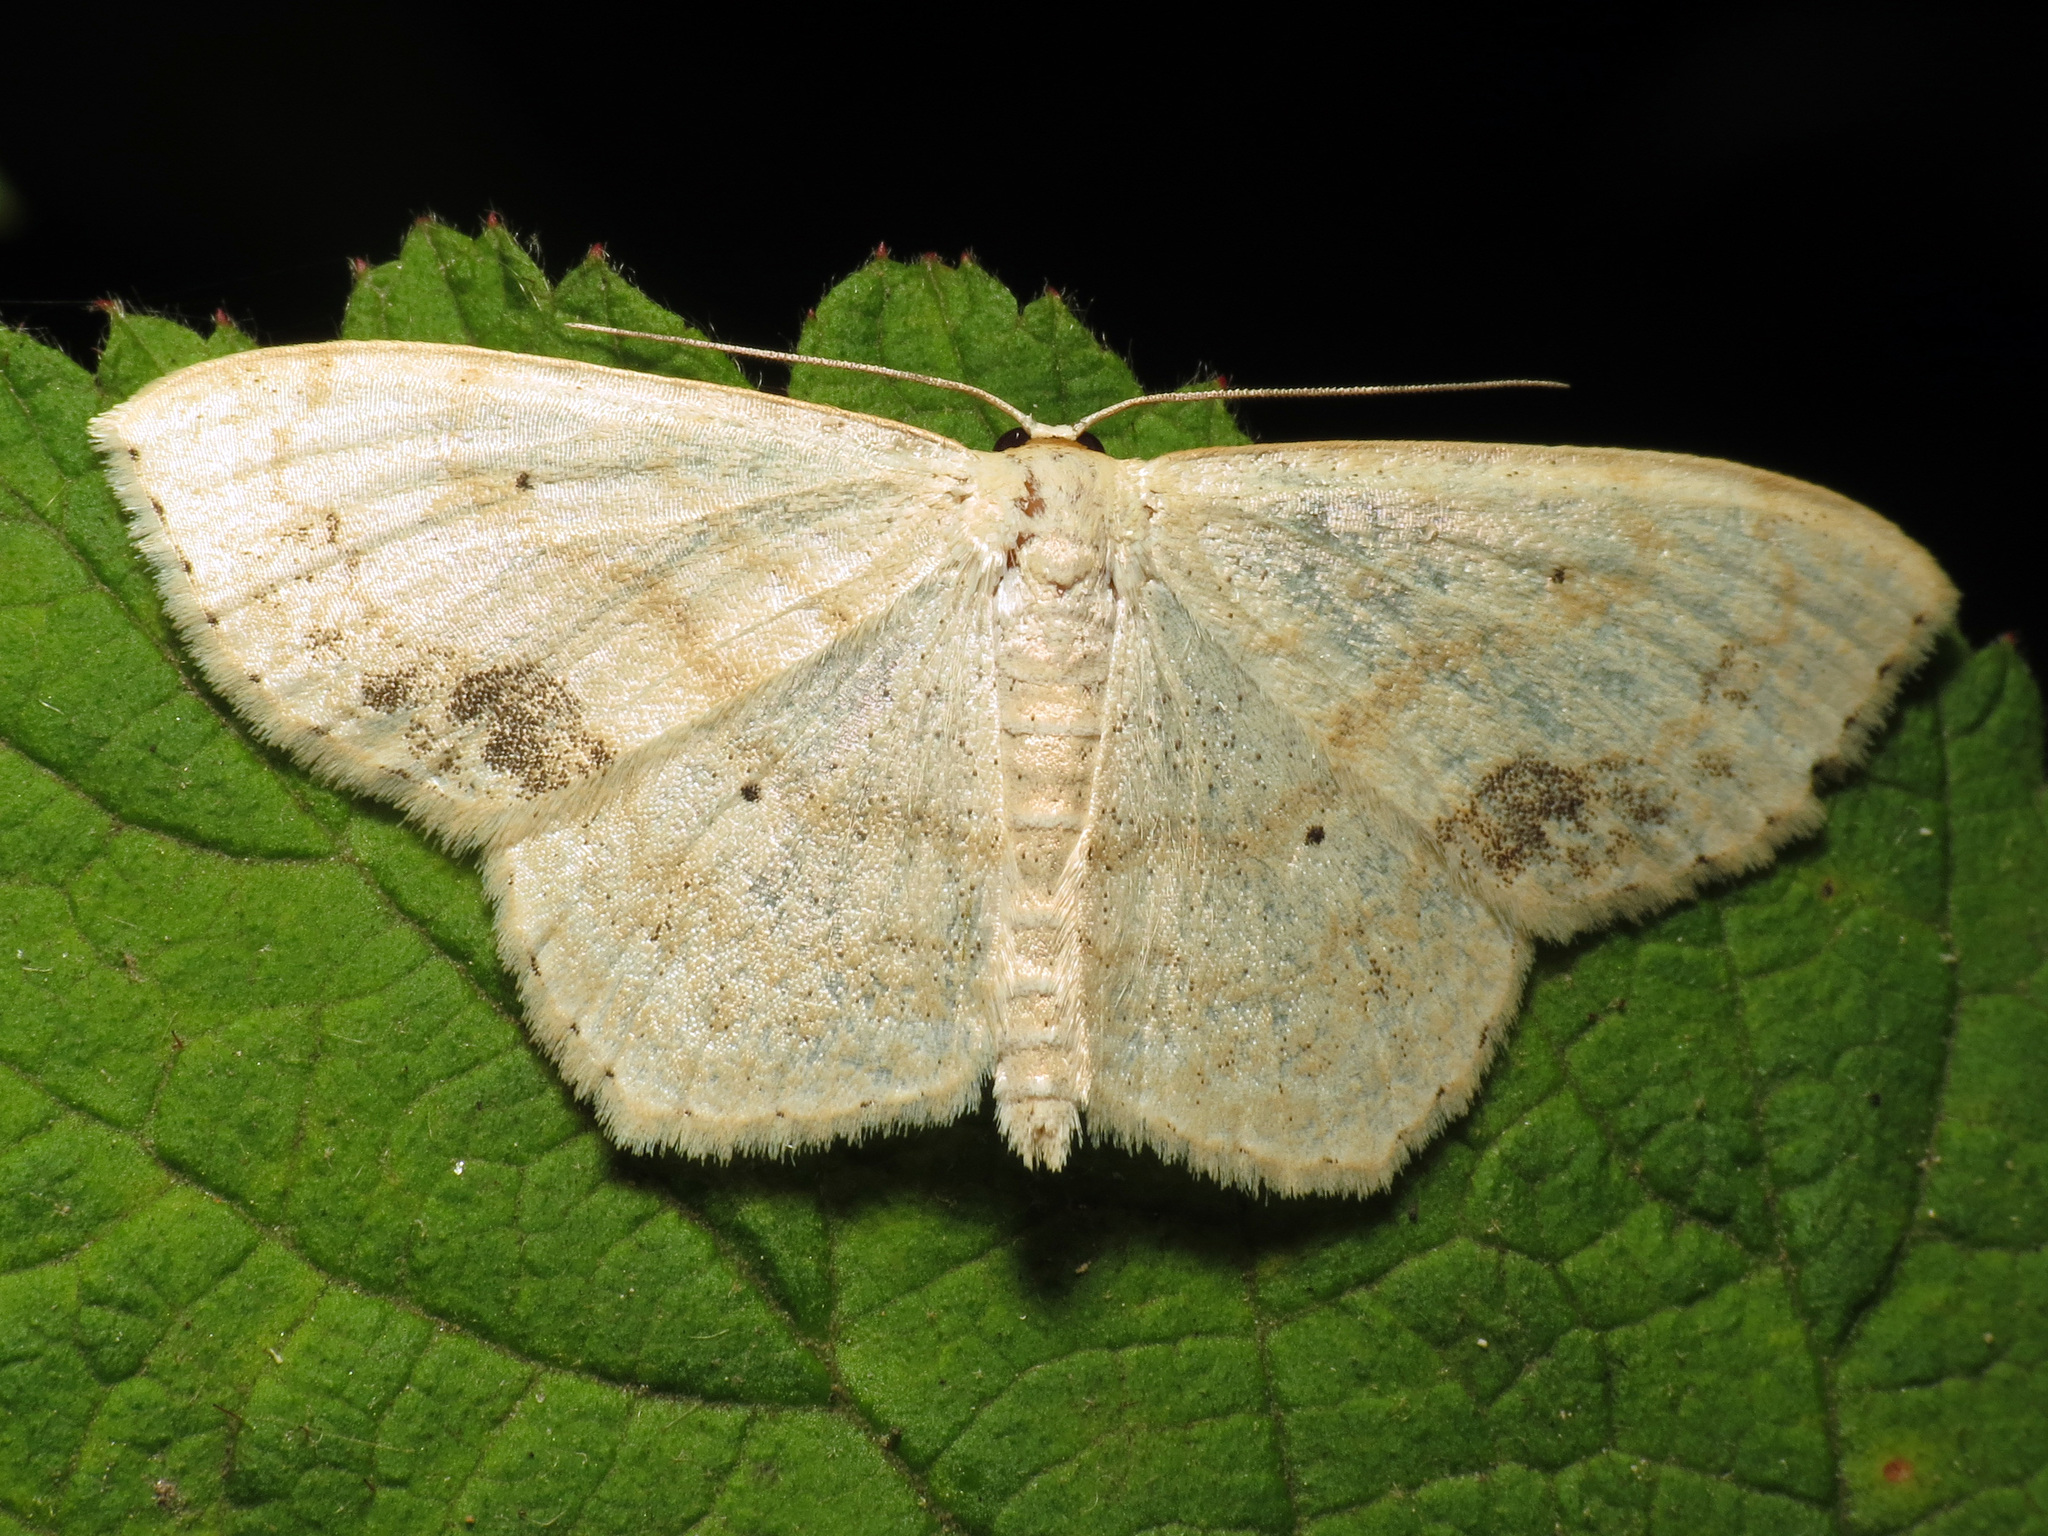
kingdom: Animalia
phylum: Arthropoda
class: Insecta
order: Lepidoptera
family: Geometridae
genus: Scopula
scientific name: Scopula limboundata
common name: Large lace border
